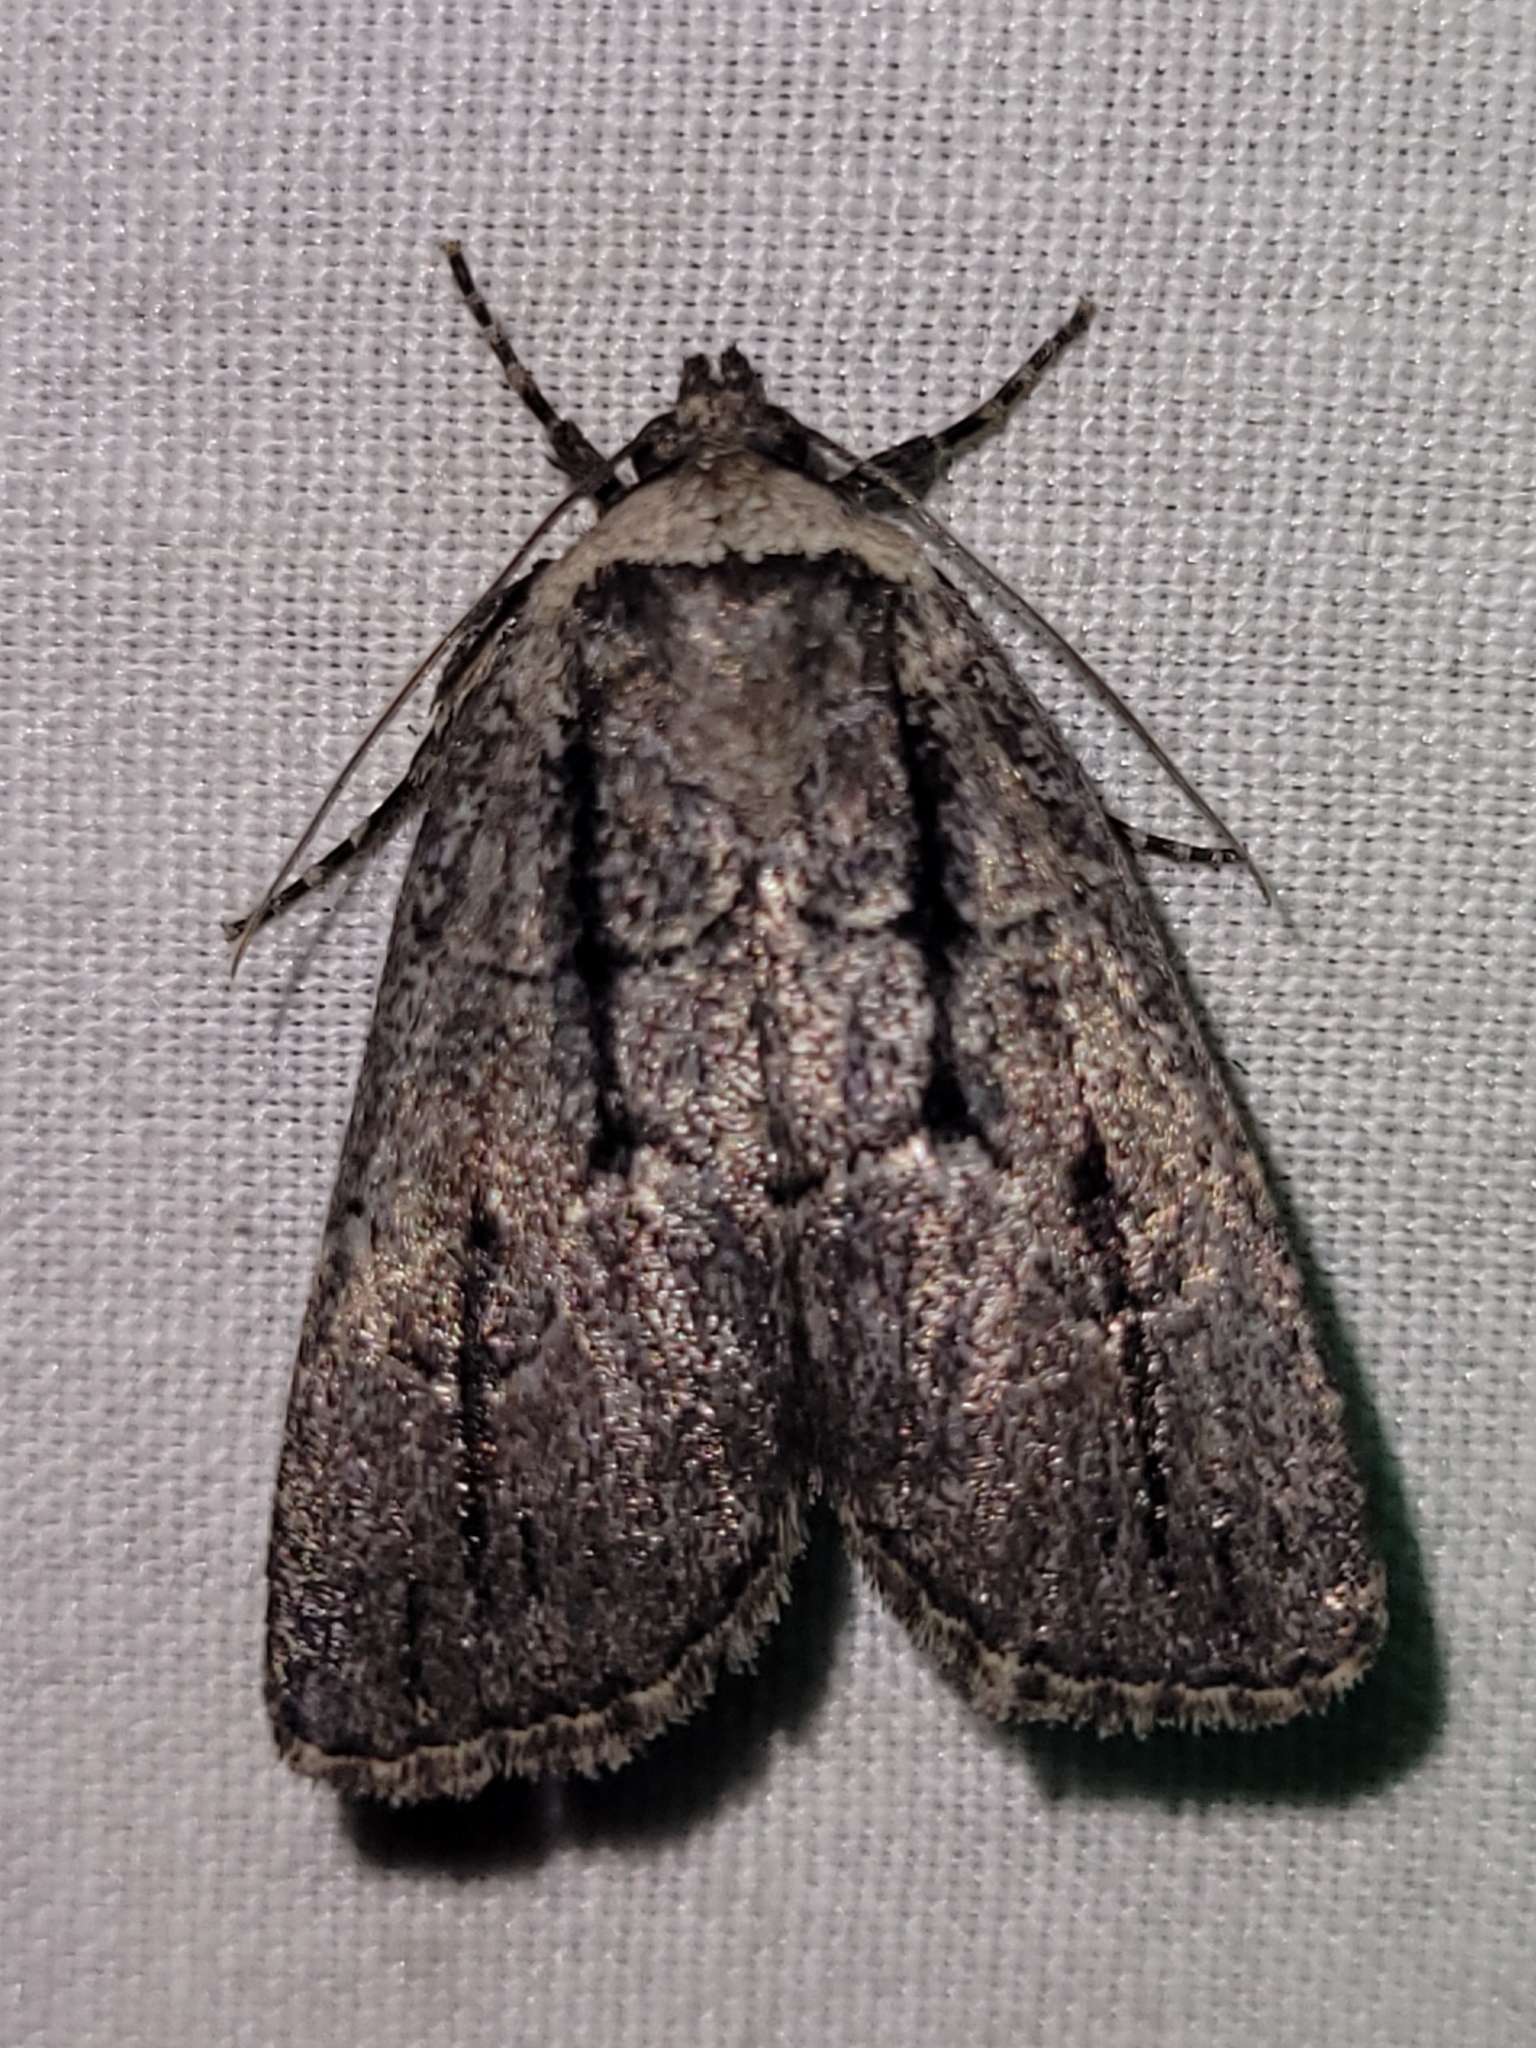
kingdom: Animalia
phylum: Arthropoda
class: Insecta
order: Lepidoptera
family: Noctuidae
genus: Sympistis
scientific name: Sympistis dinalda
